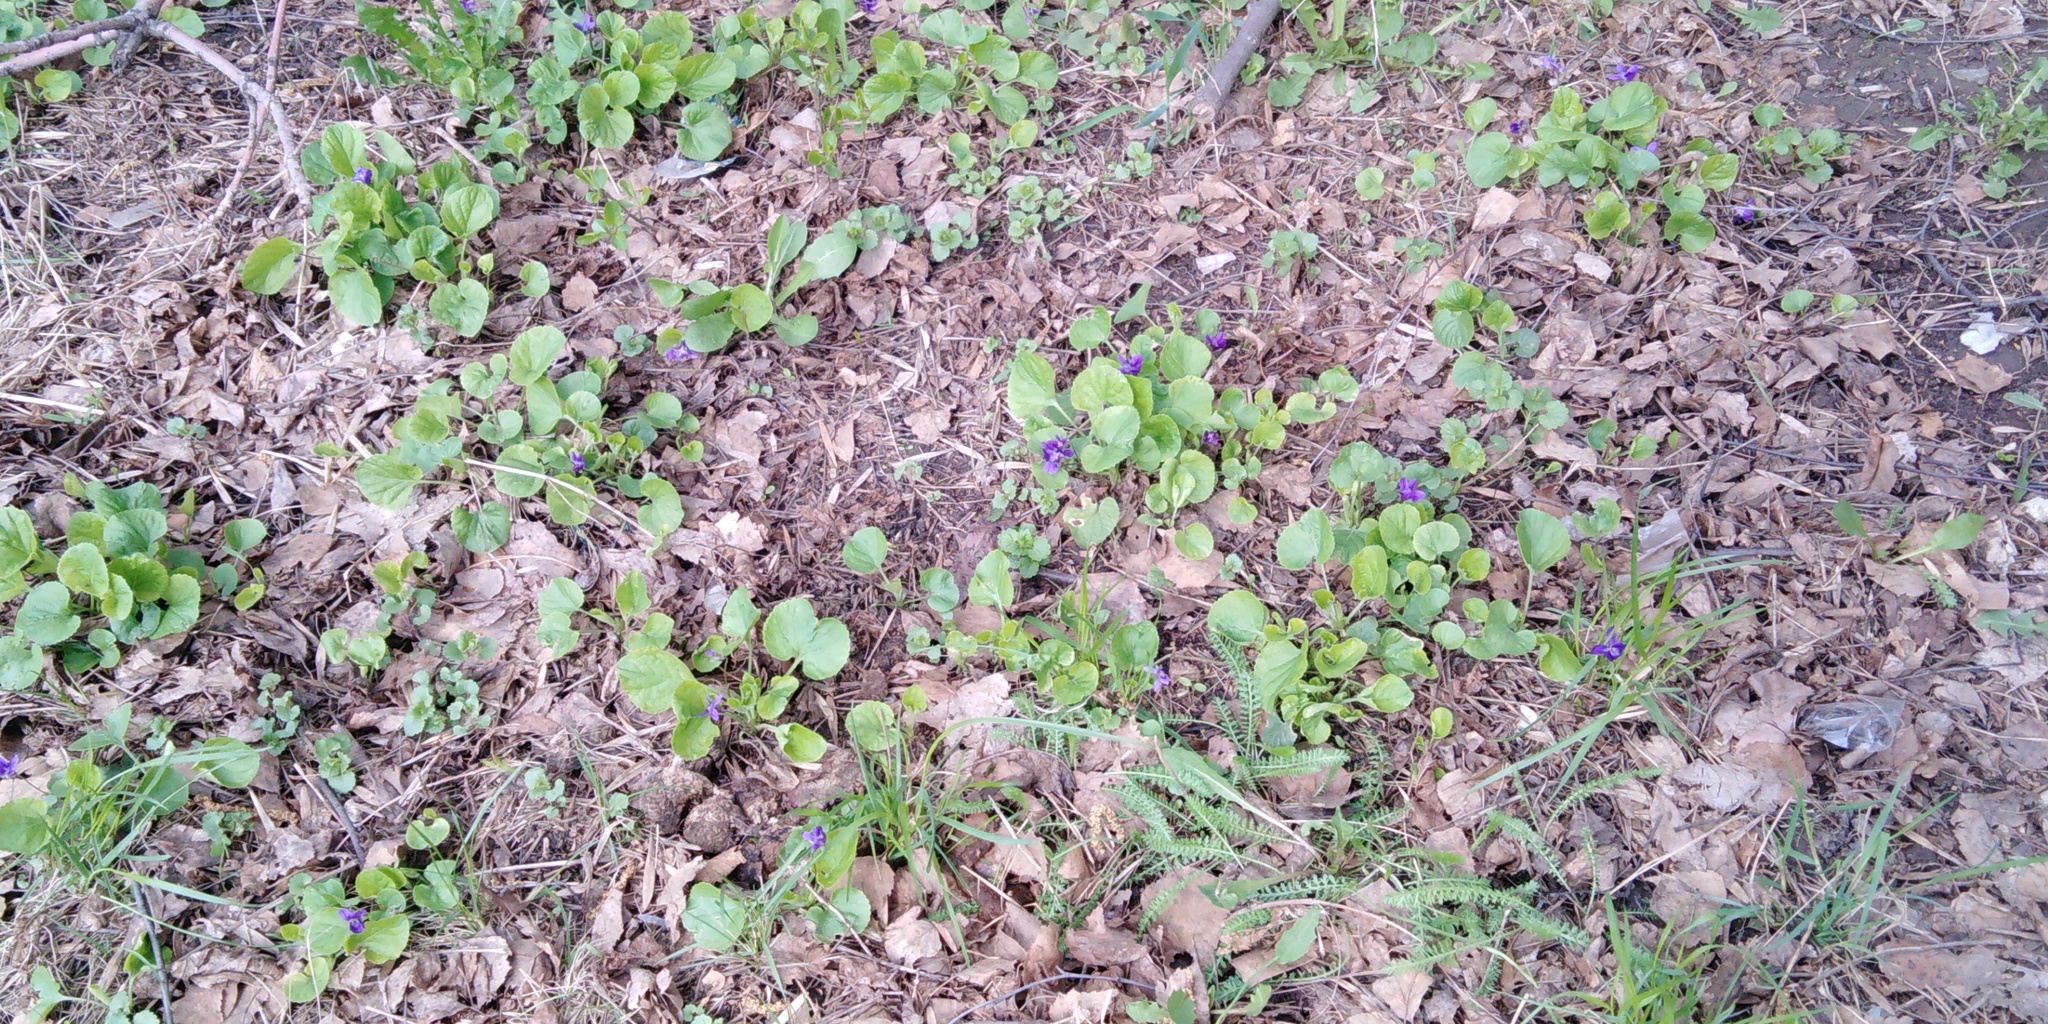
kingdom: Plantae
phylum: Tracheophyta
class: Magnoliopsida
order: Malpighiales
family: Violaceae
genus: Viola
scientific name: Viola odorata
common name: Sweet violet
